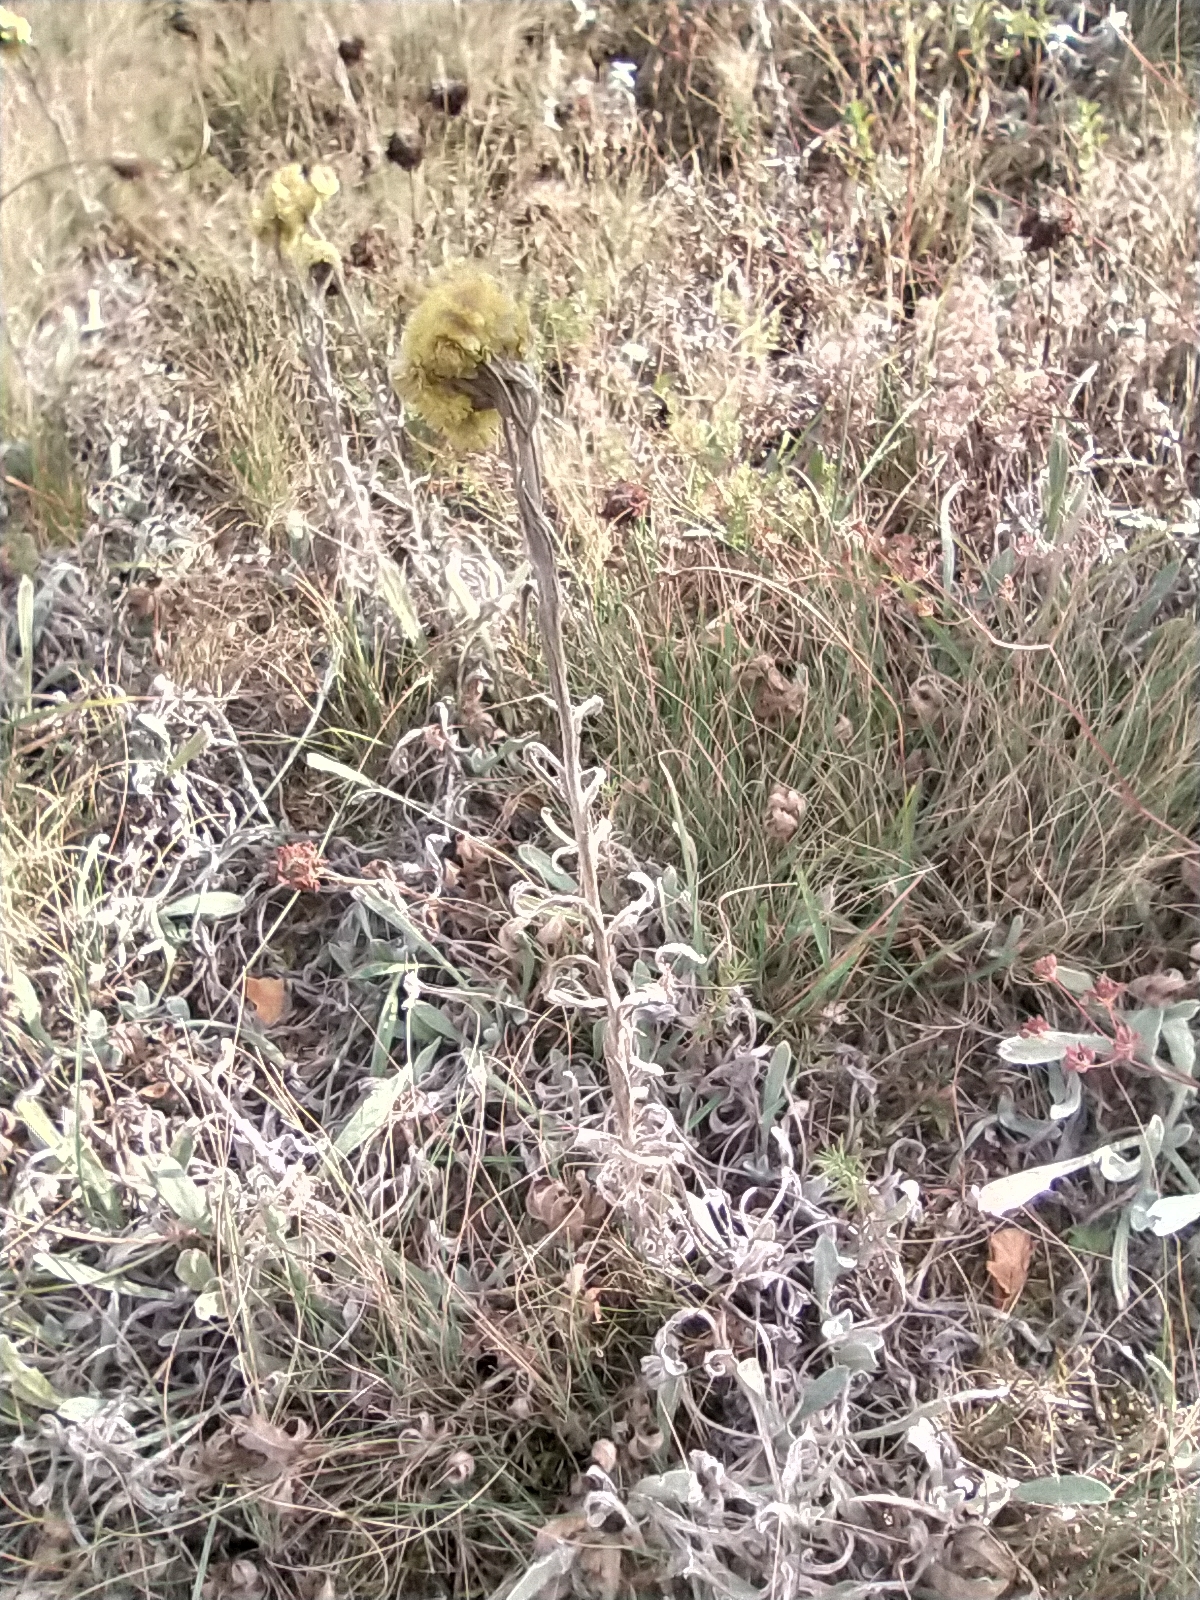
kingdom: Plantae
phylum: Tracheophyta
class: Magnoliopsida
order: Asterales
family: Asteraceae
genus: Helichrysum
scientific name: Helichrysum arenarium
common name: Strawflower
